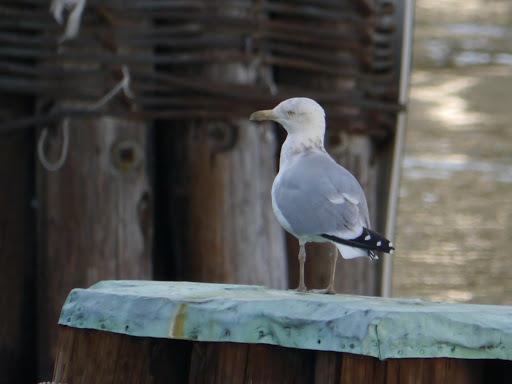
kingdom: Animalia
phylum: Chordata
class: Aves
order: Charadriiformes
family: Laridae
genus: Larus
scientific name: Larus argentatus
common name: Herring gull
